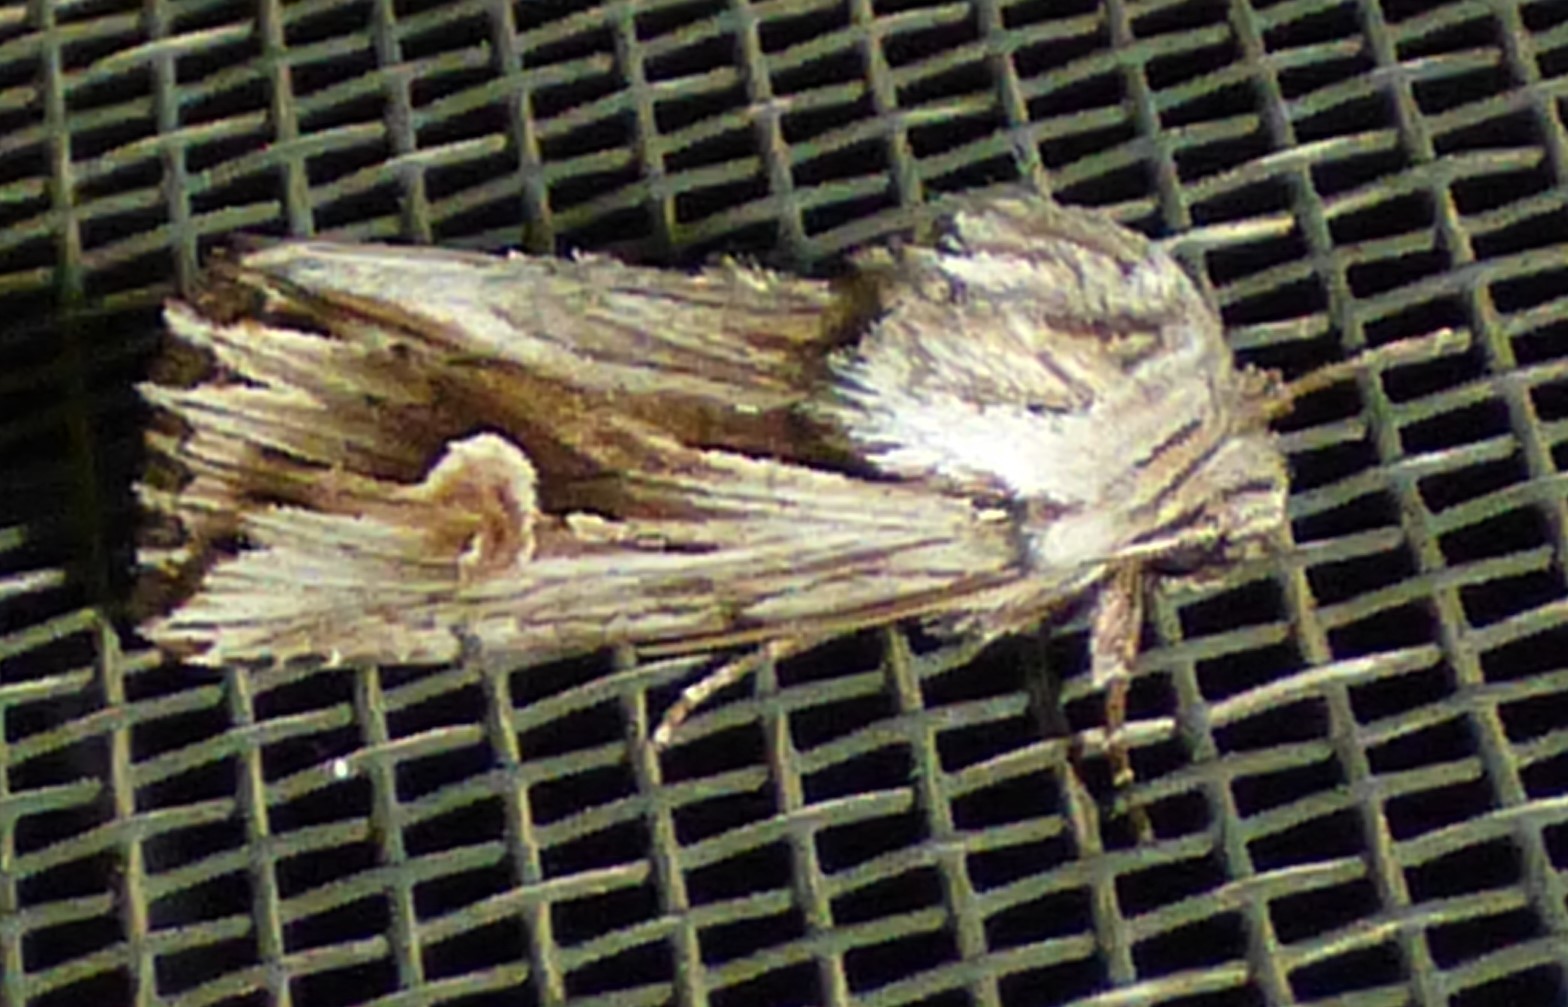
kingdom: Animalia
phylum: Arthropoda
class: Insecta
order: Lepidoptera
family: Noctuidae
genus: Nedra
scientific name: Nedra ramosula
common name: Gray half-spot
